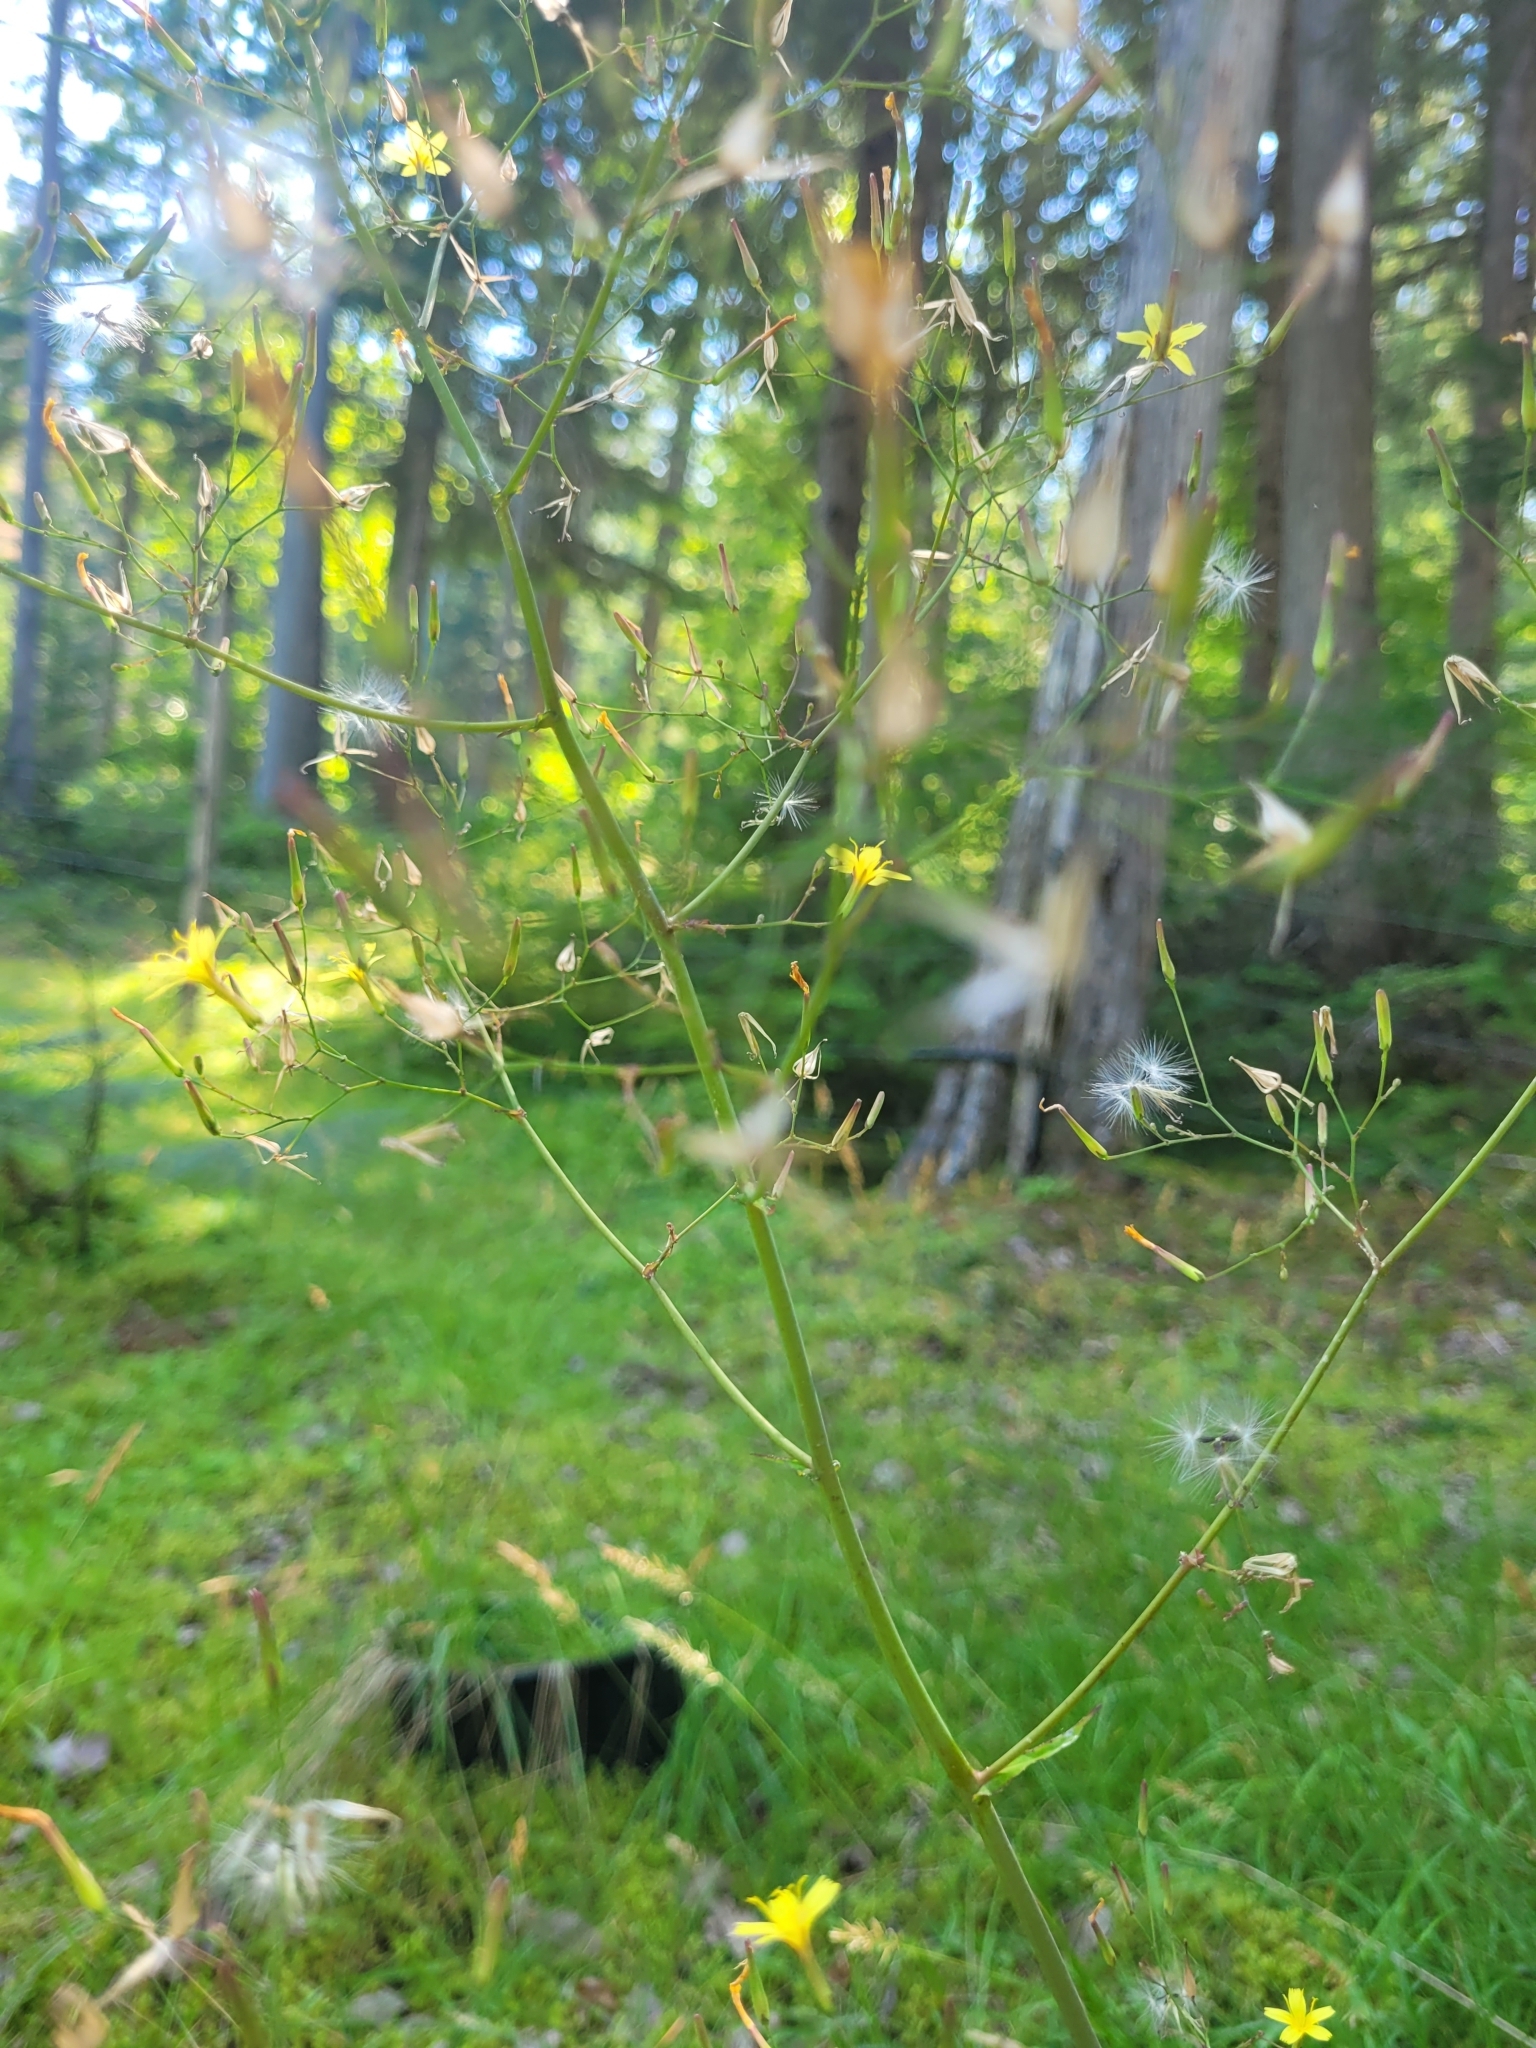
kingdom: Plantae
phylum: Tracheophyta
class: Magnoliopsida
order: Asterales
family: Asteraceae
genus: Mycelis
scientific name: Mycelis muralis
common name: Wall lettuce
